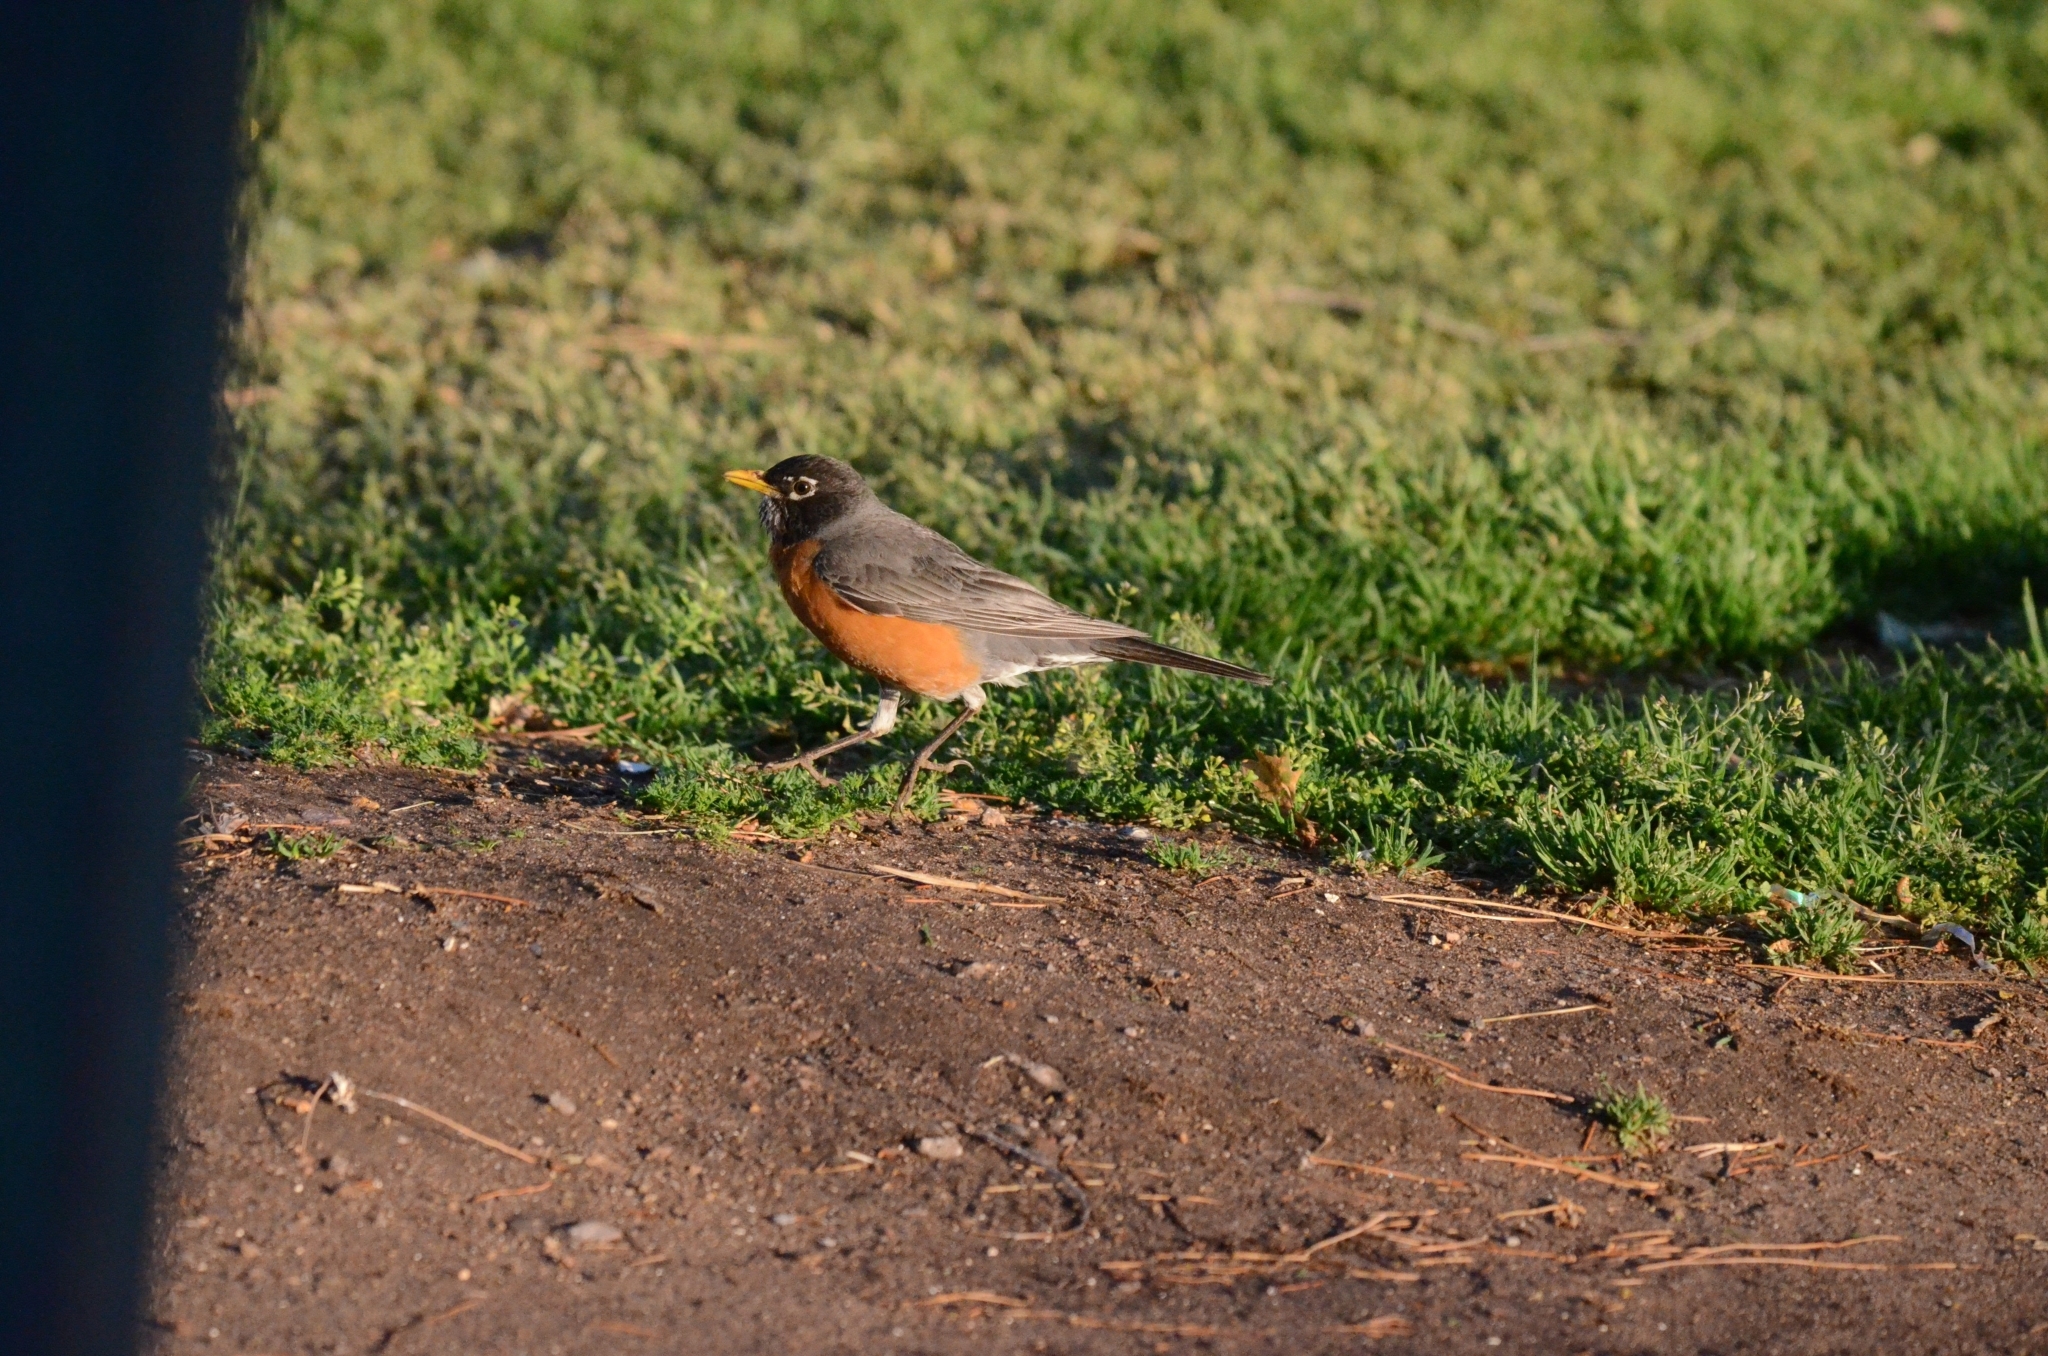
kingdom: Animalia
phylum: Chordata
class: Aves
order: Passeriformes
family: Turdidae
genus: Turdus
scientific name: Turdus migratorius
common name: American robin
